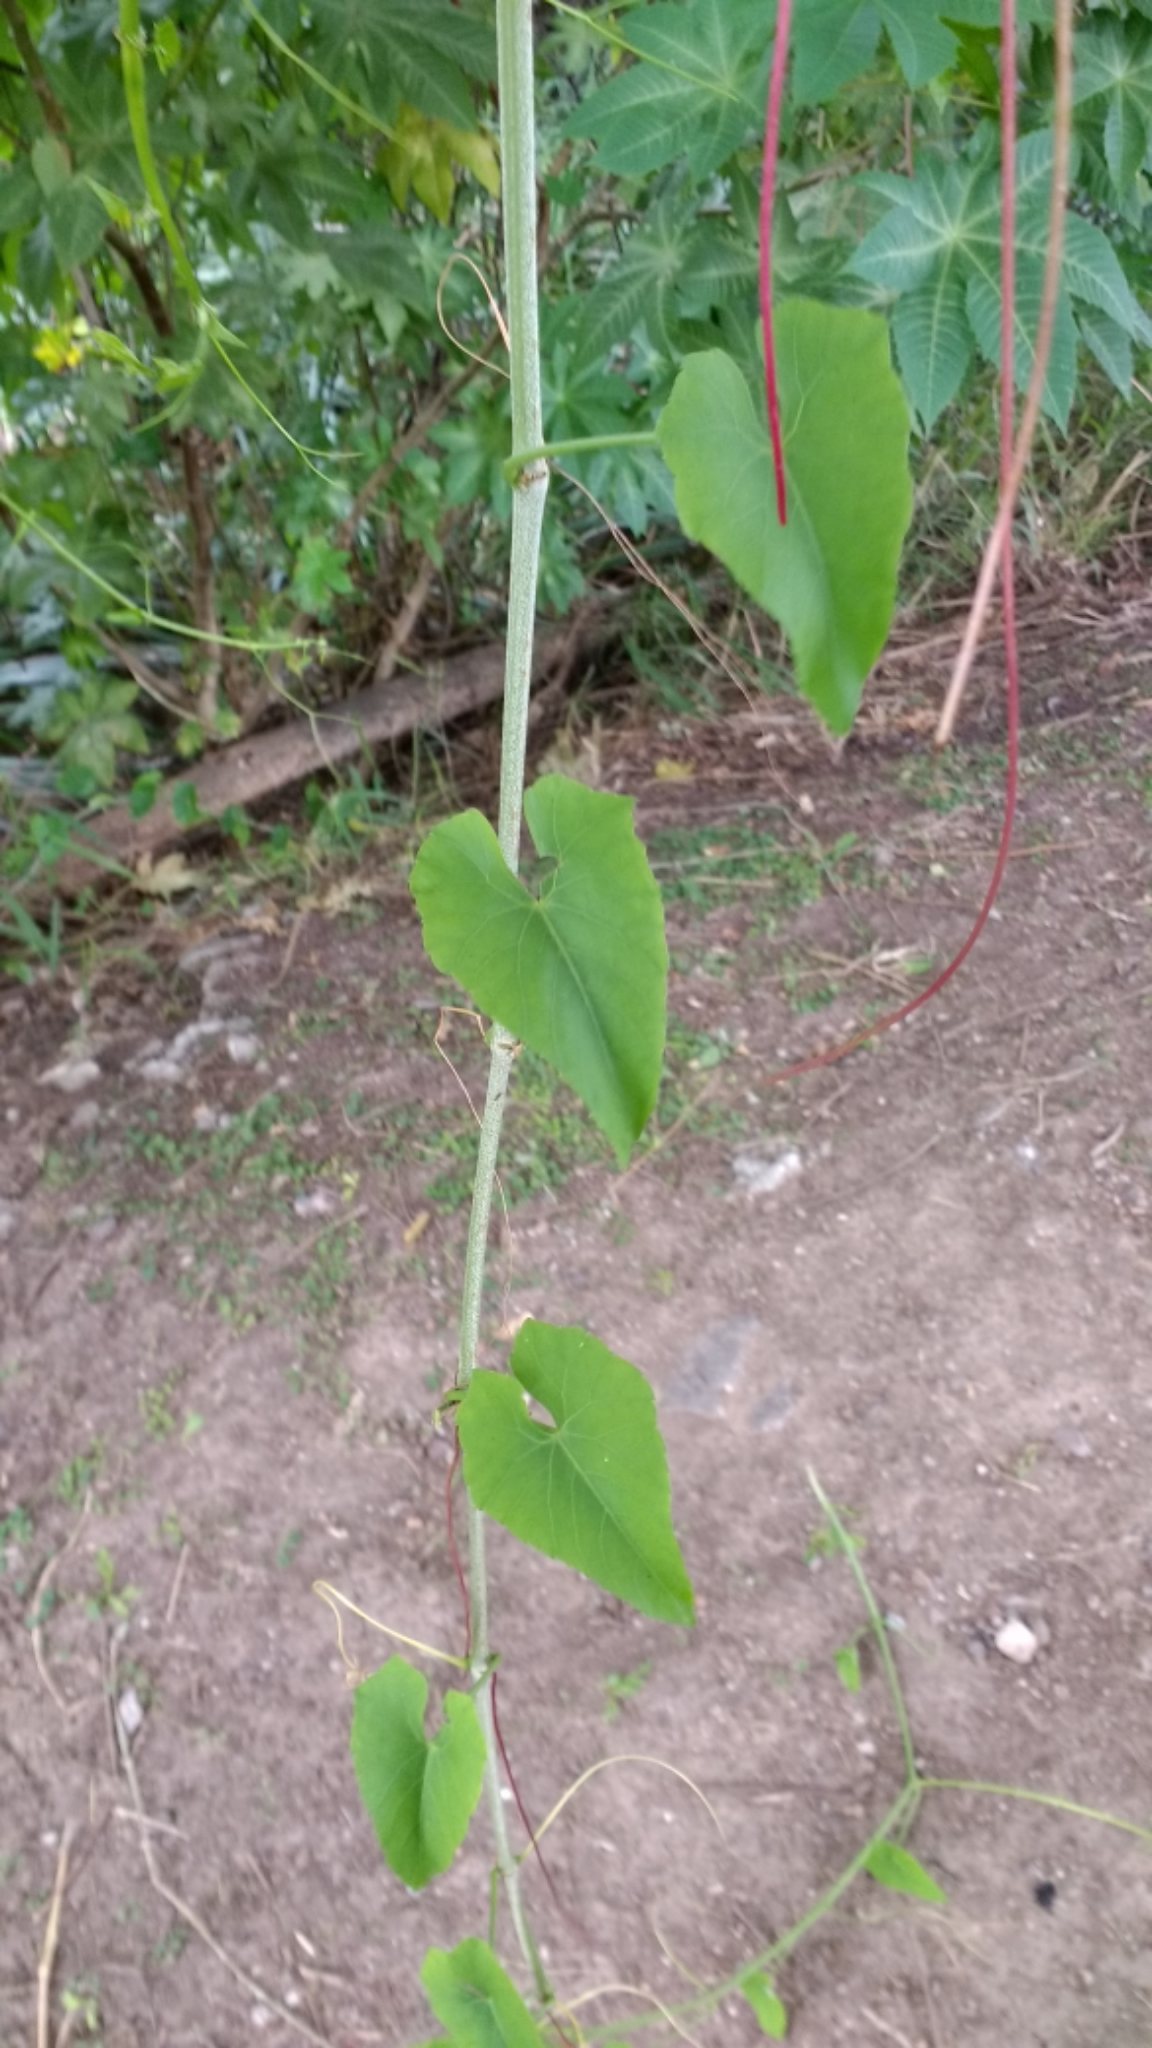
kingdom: Plantae
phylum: Tracheophyta
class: Magnoliopsida
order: Vitales
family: Vitaceae
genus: Cissus
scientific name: Cissus verticillata
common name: Princess vine
